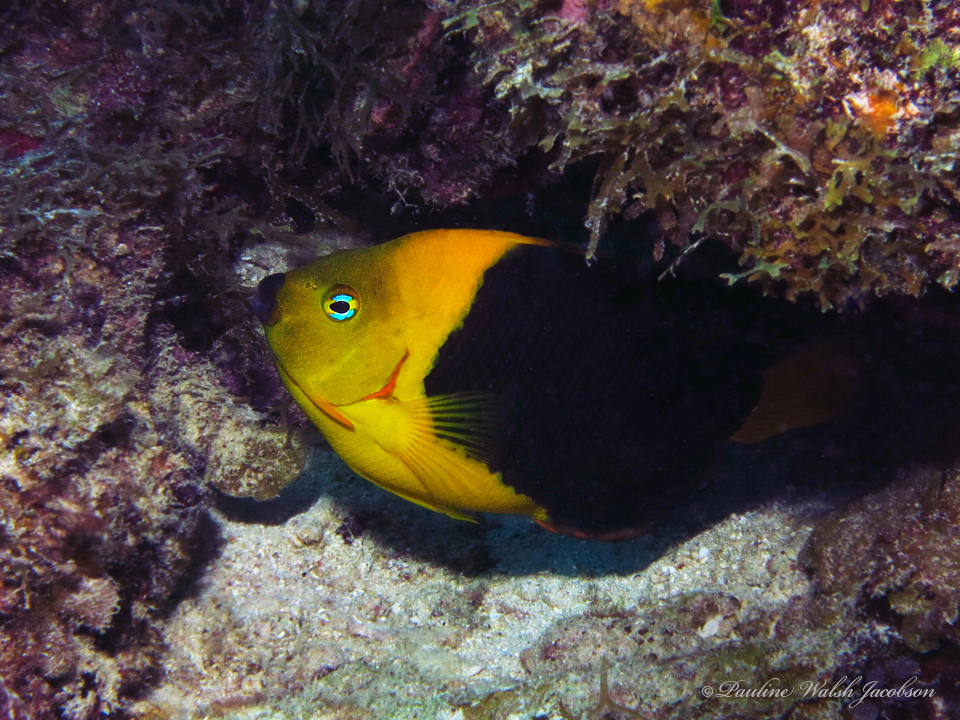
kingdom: Animalia
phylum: Chordata
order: Perciformes
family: Pomacanthidae
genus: Holacanthus
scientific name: Holacanthus tricolor
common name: Rock beauty
